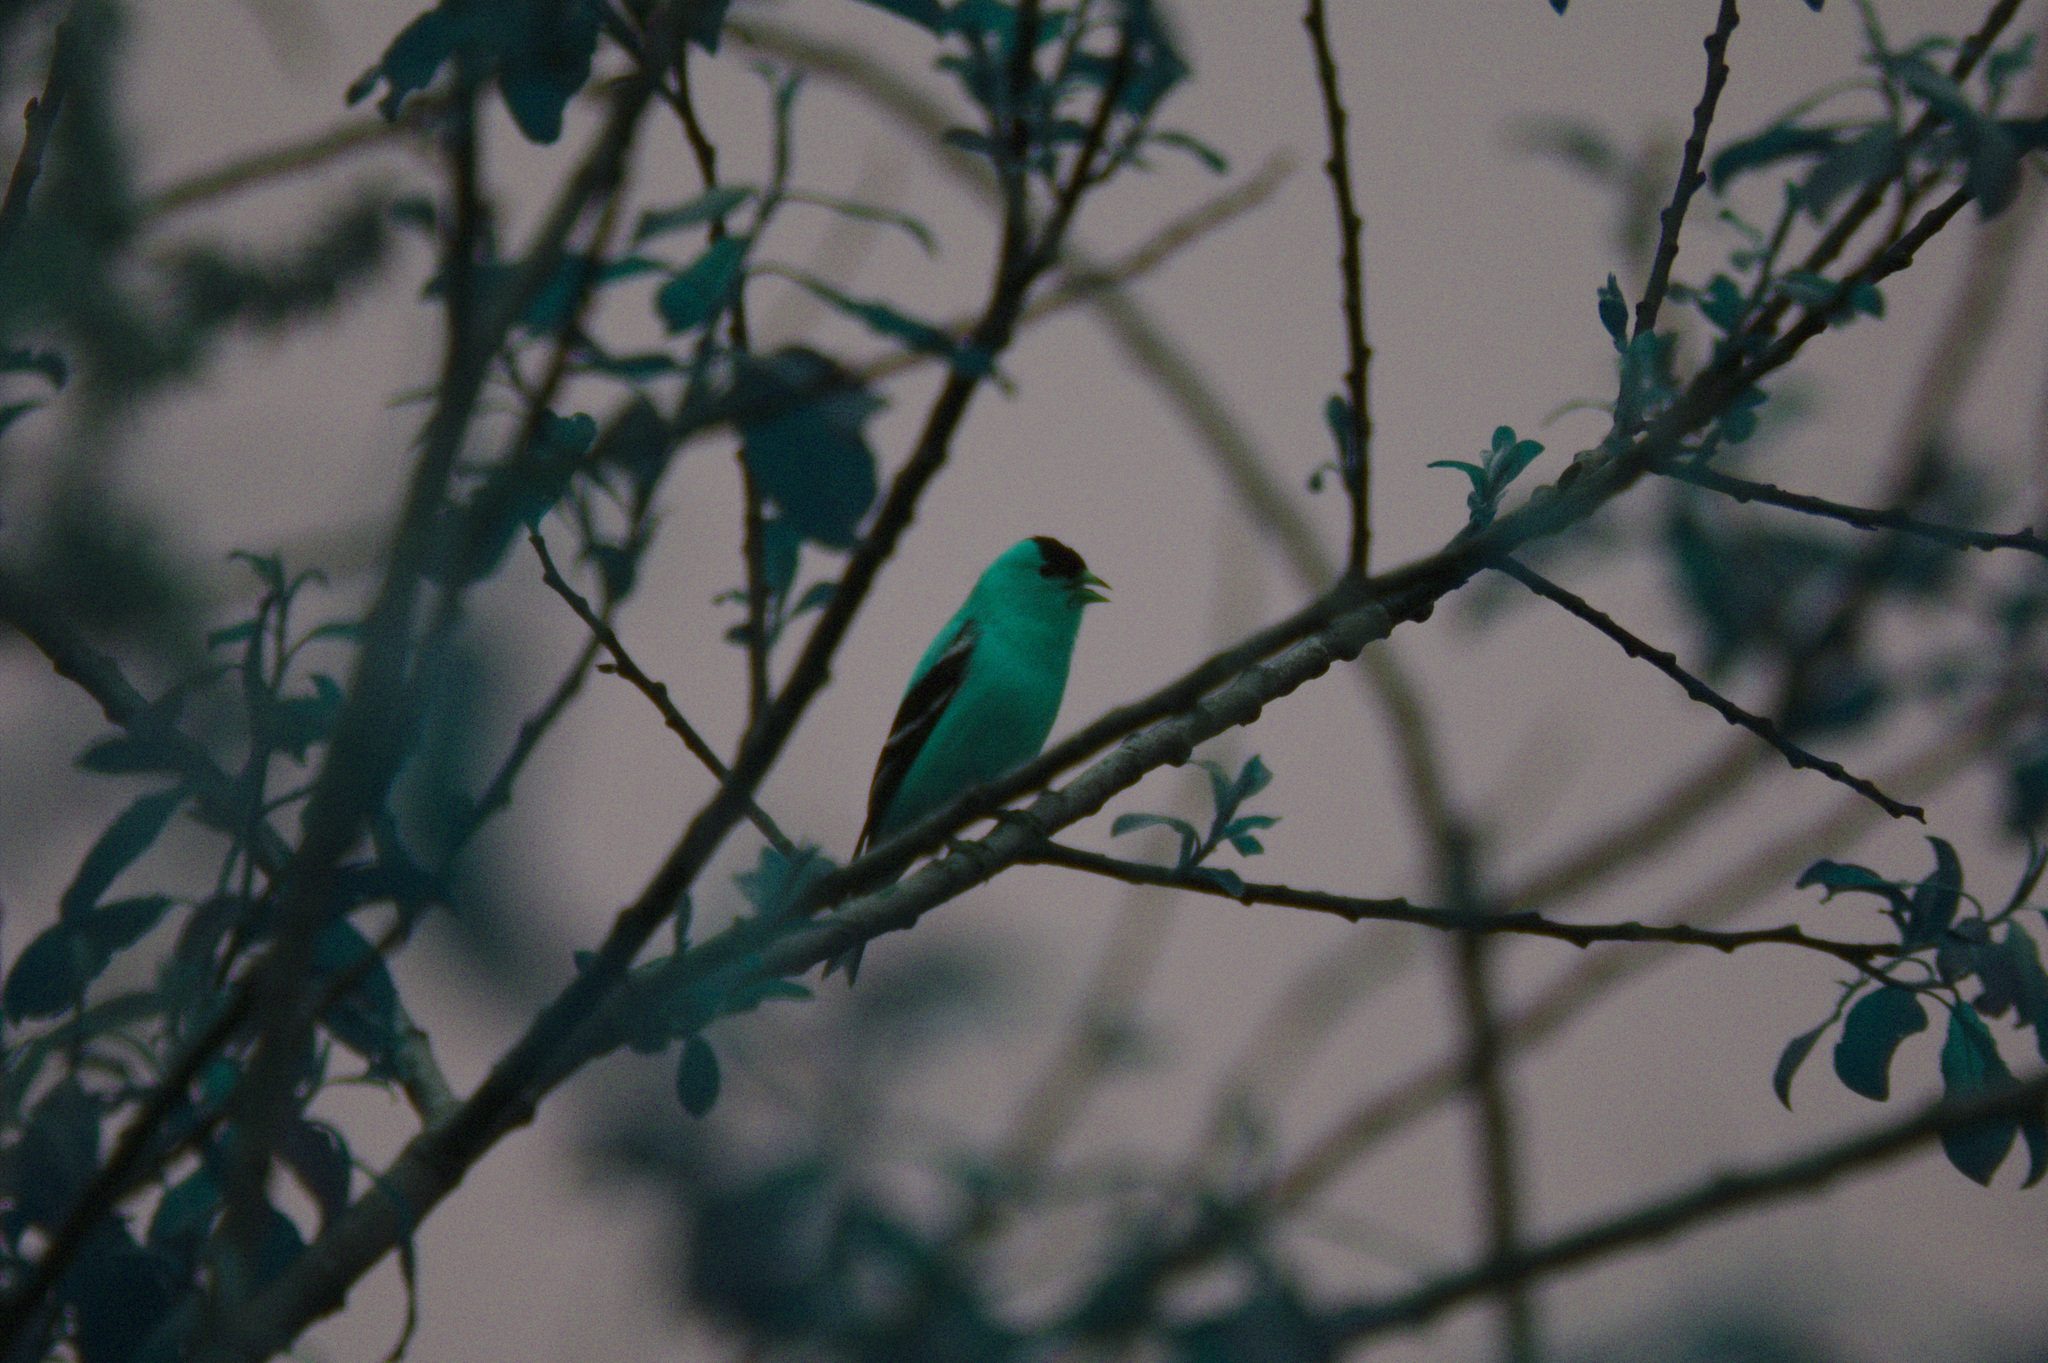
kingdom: Animalia
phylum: Chordata
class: Aves
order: Passeriformes
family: Fringillidae
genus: Spinus
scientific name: Spinus tristis
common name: American goldfinch
